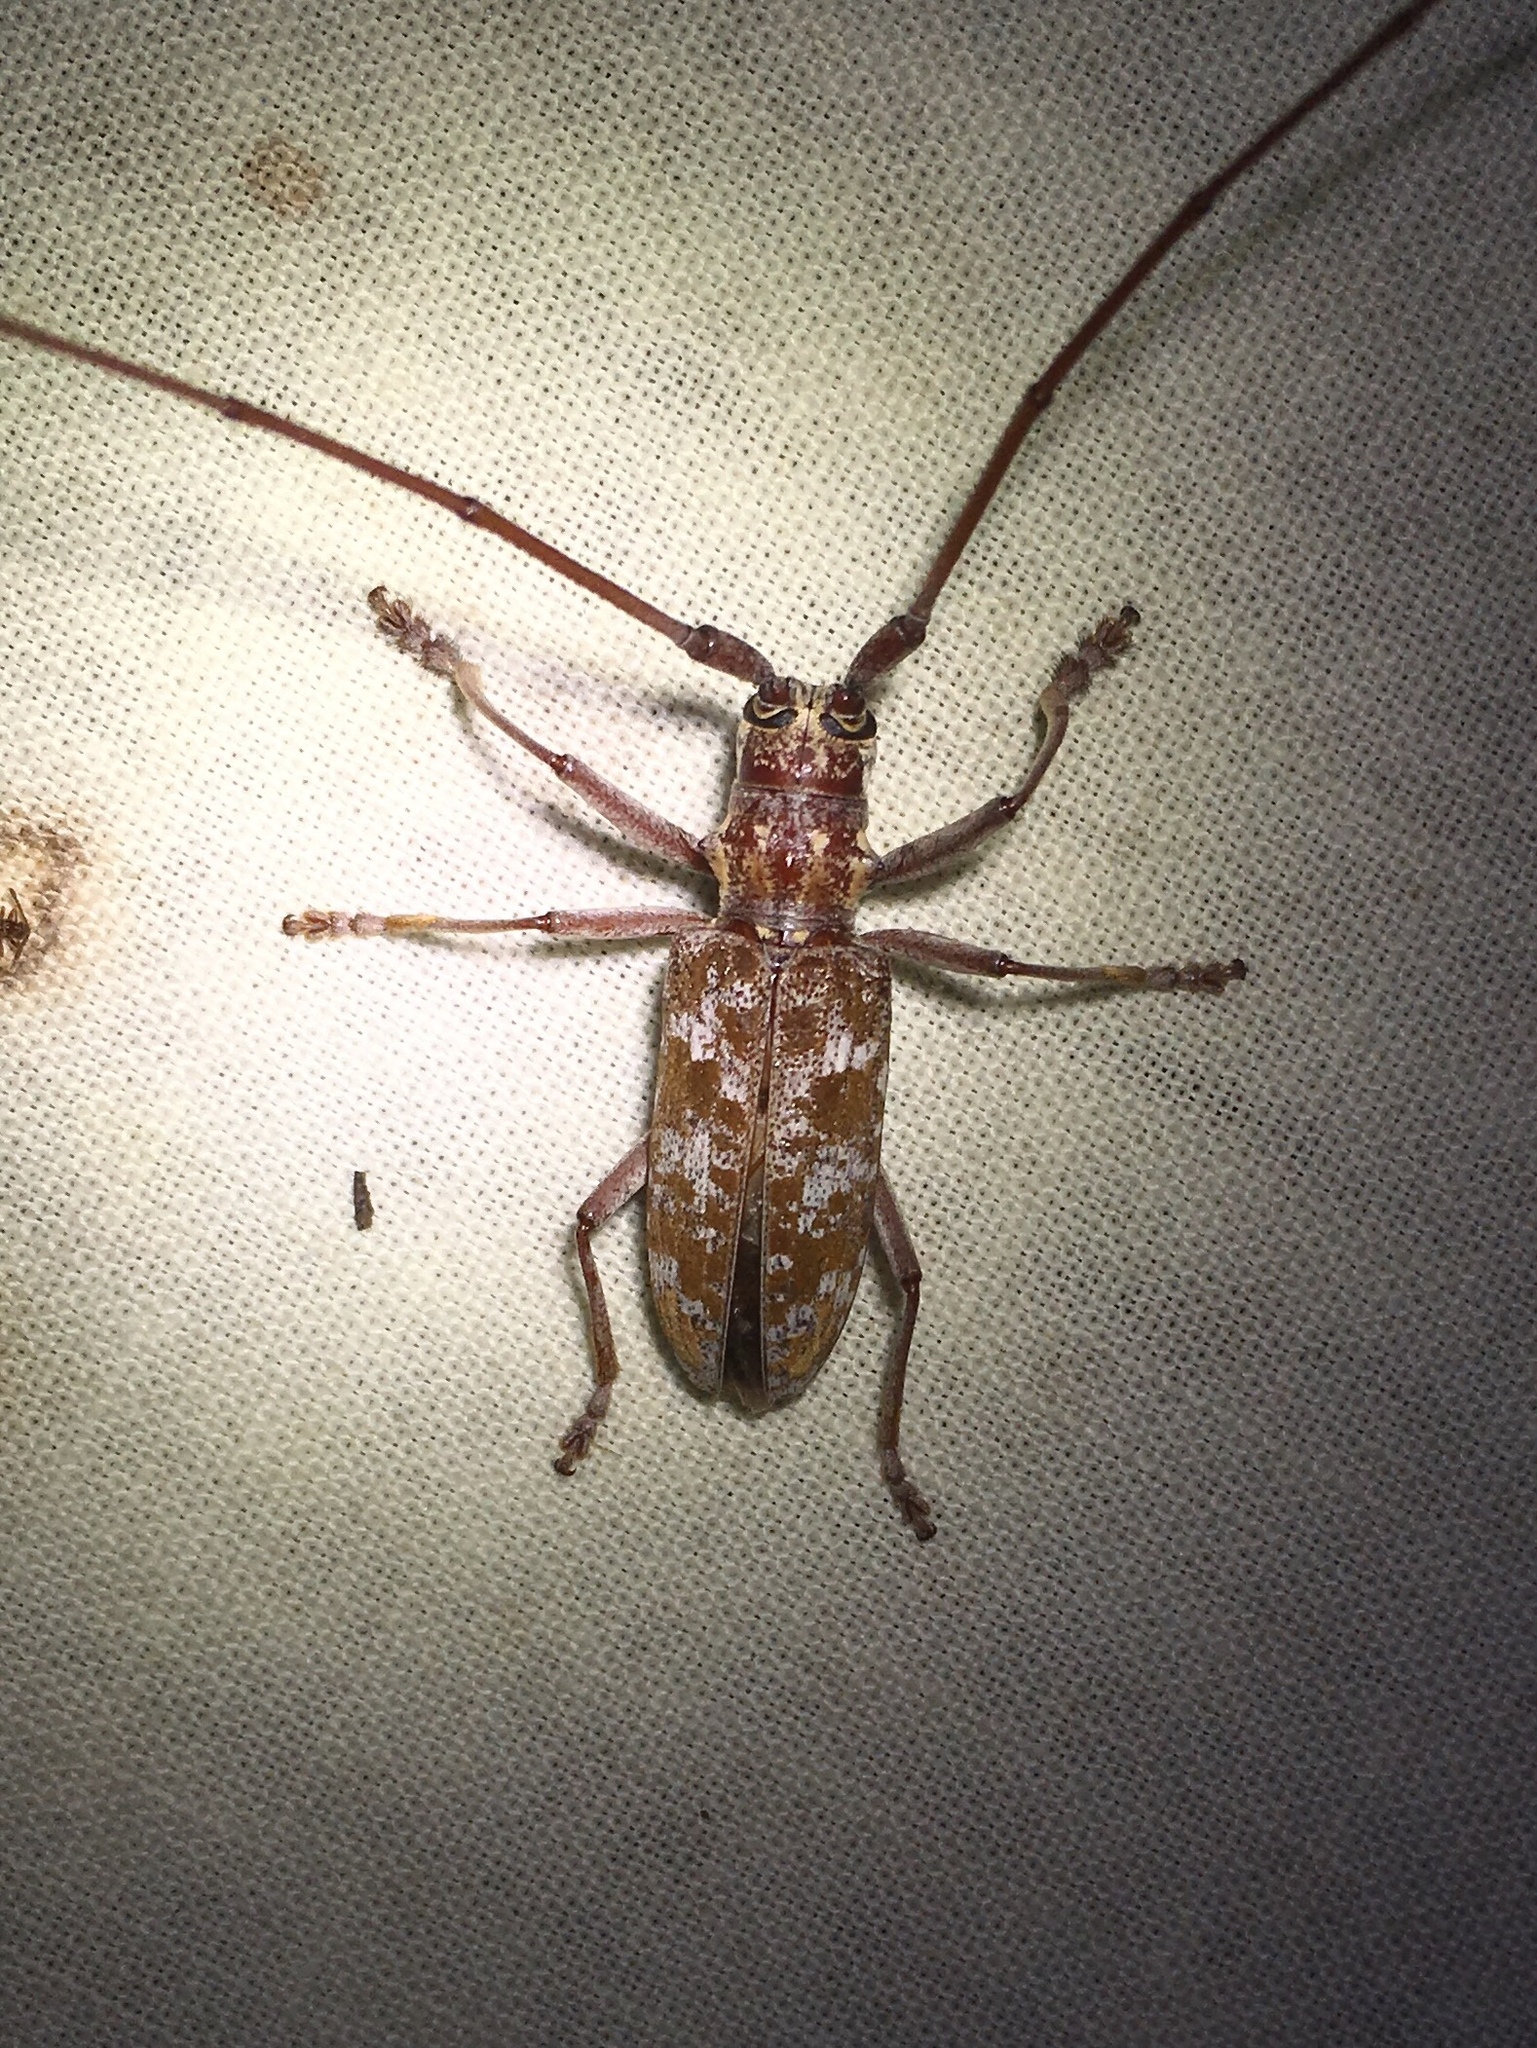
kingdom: Animalia
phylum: Arthropoda
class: Insecta
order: Coleoptera
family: Cerambycidae
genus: Monochamus
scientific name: Monochamus carolinensis
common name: Carolina pine sawyer
